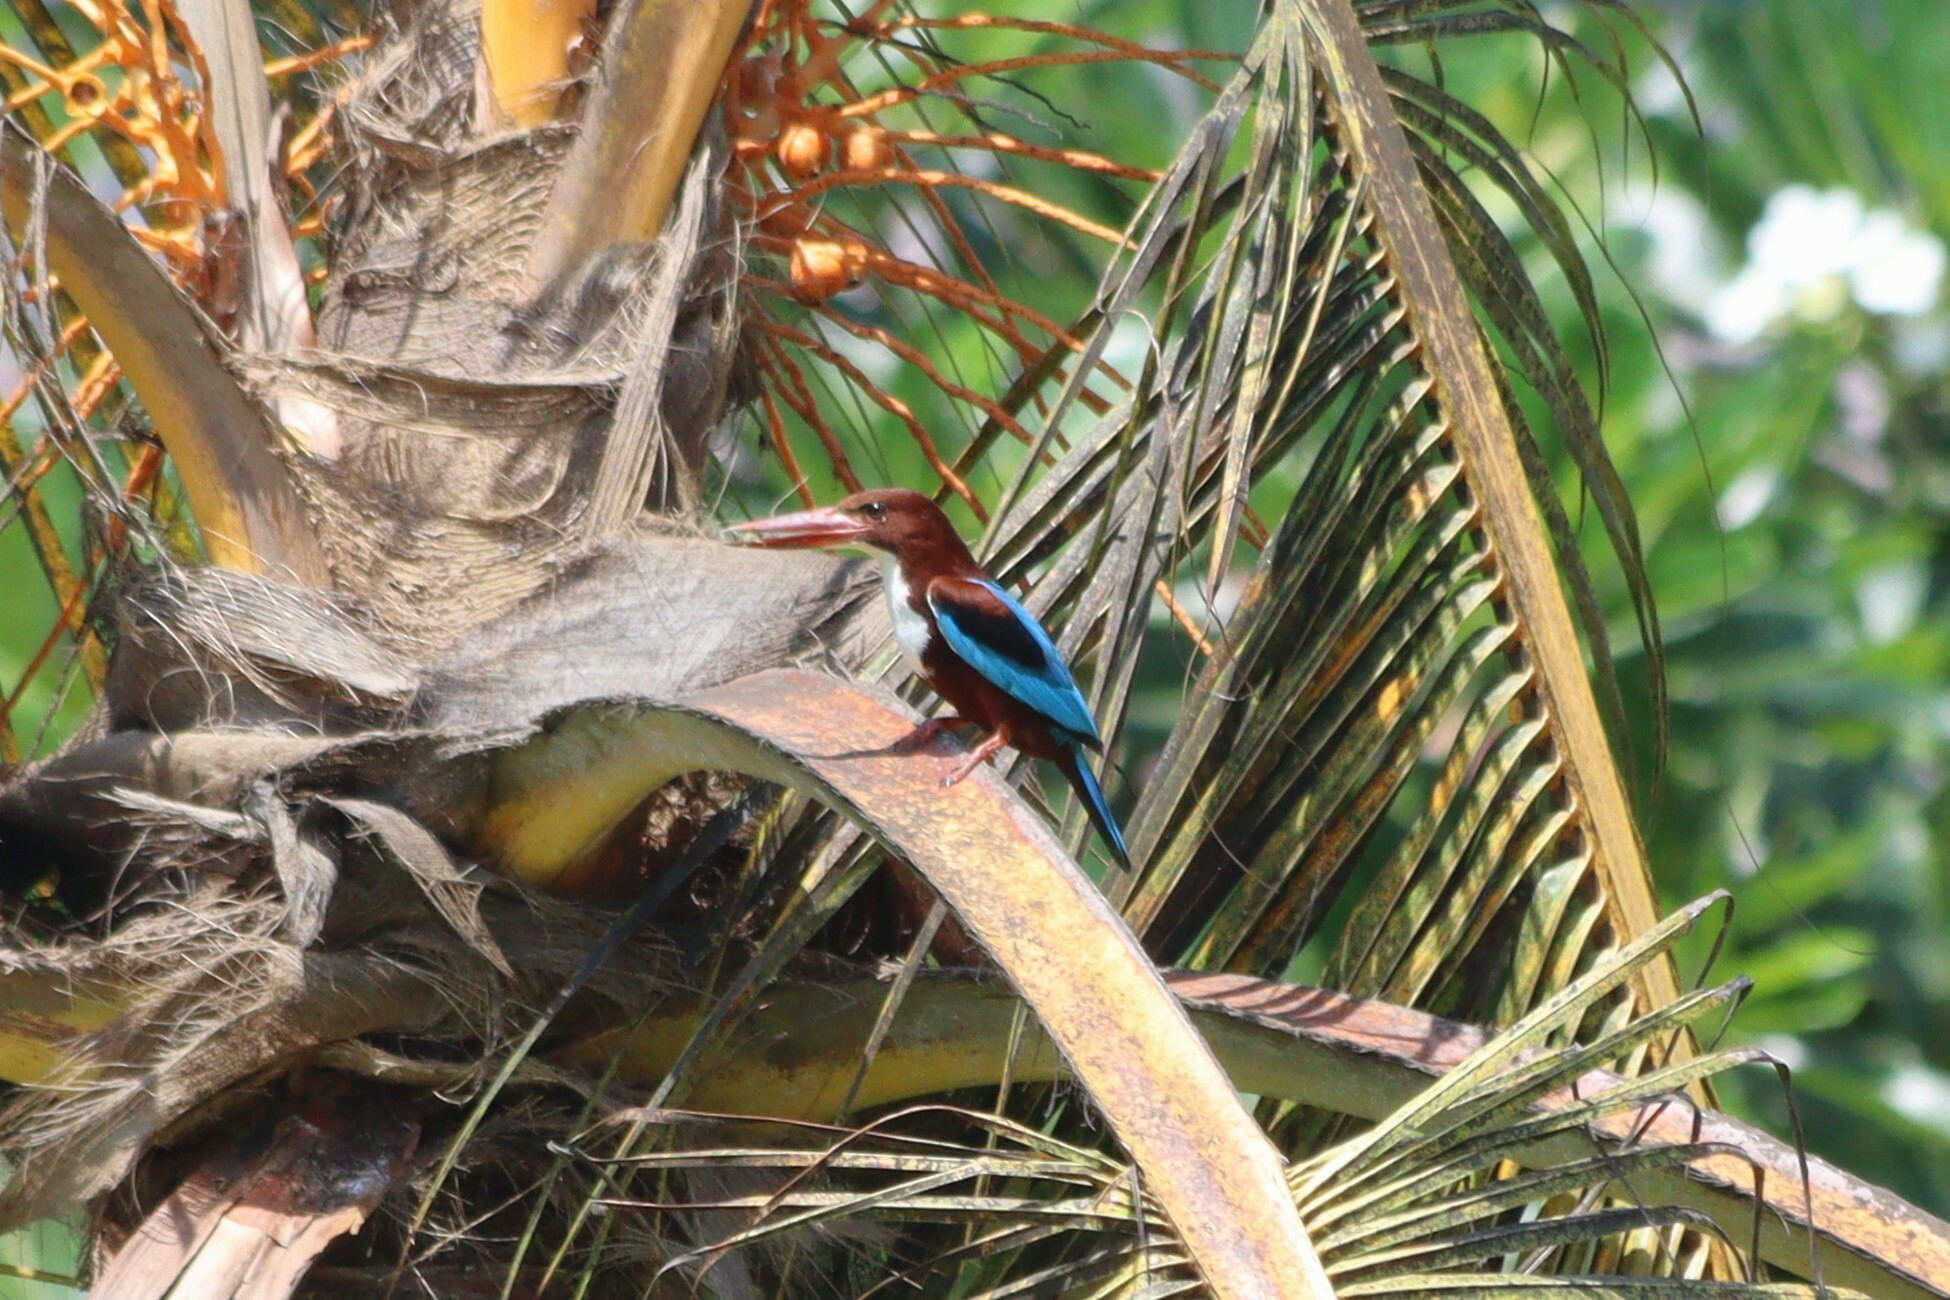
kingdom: Animalia
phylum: Chordata
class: Aves
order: Coraciiformes
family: Alcedinidae
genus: Halcyon
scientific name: Halcyon smyrnensis
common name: White-throated kingfisher
